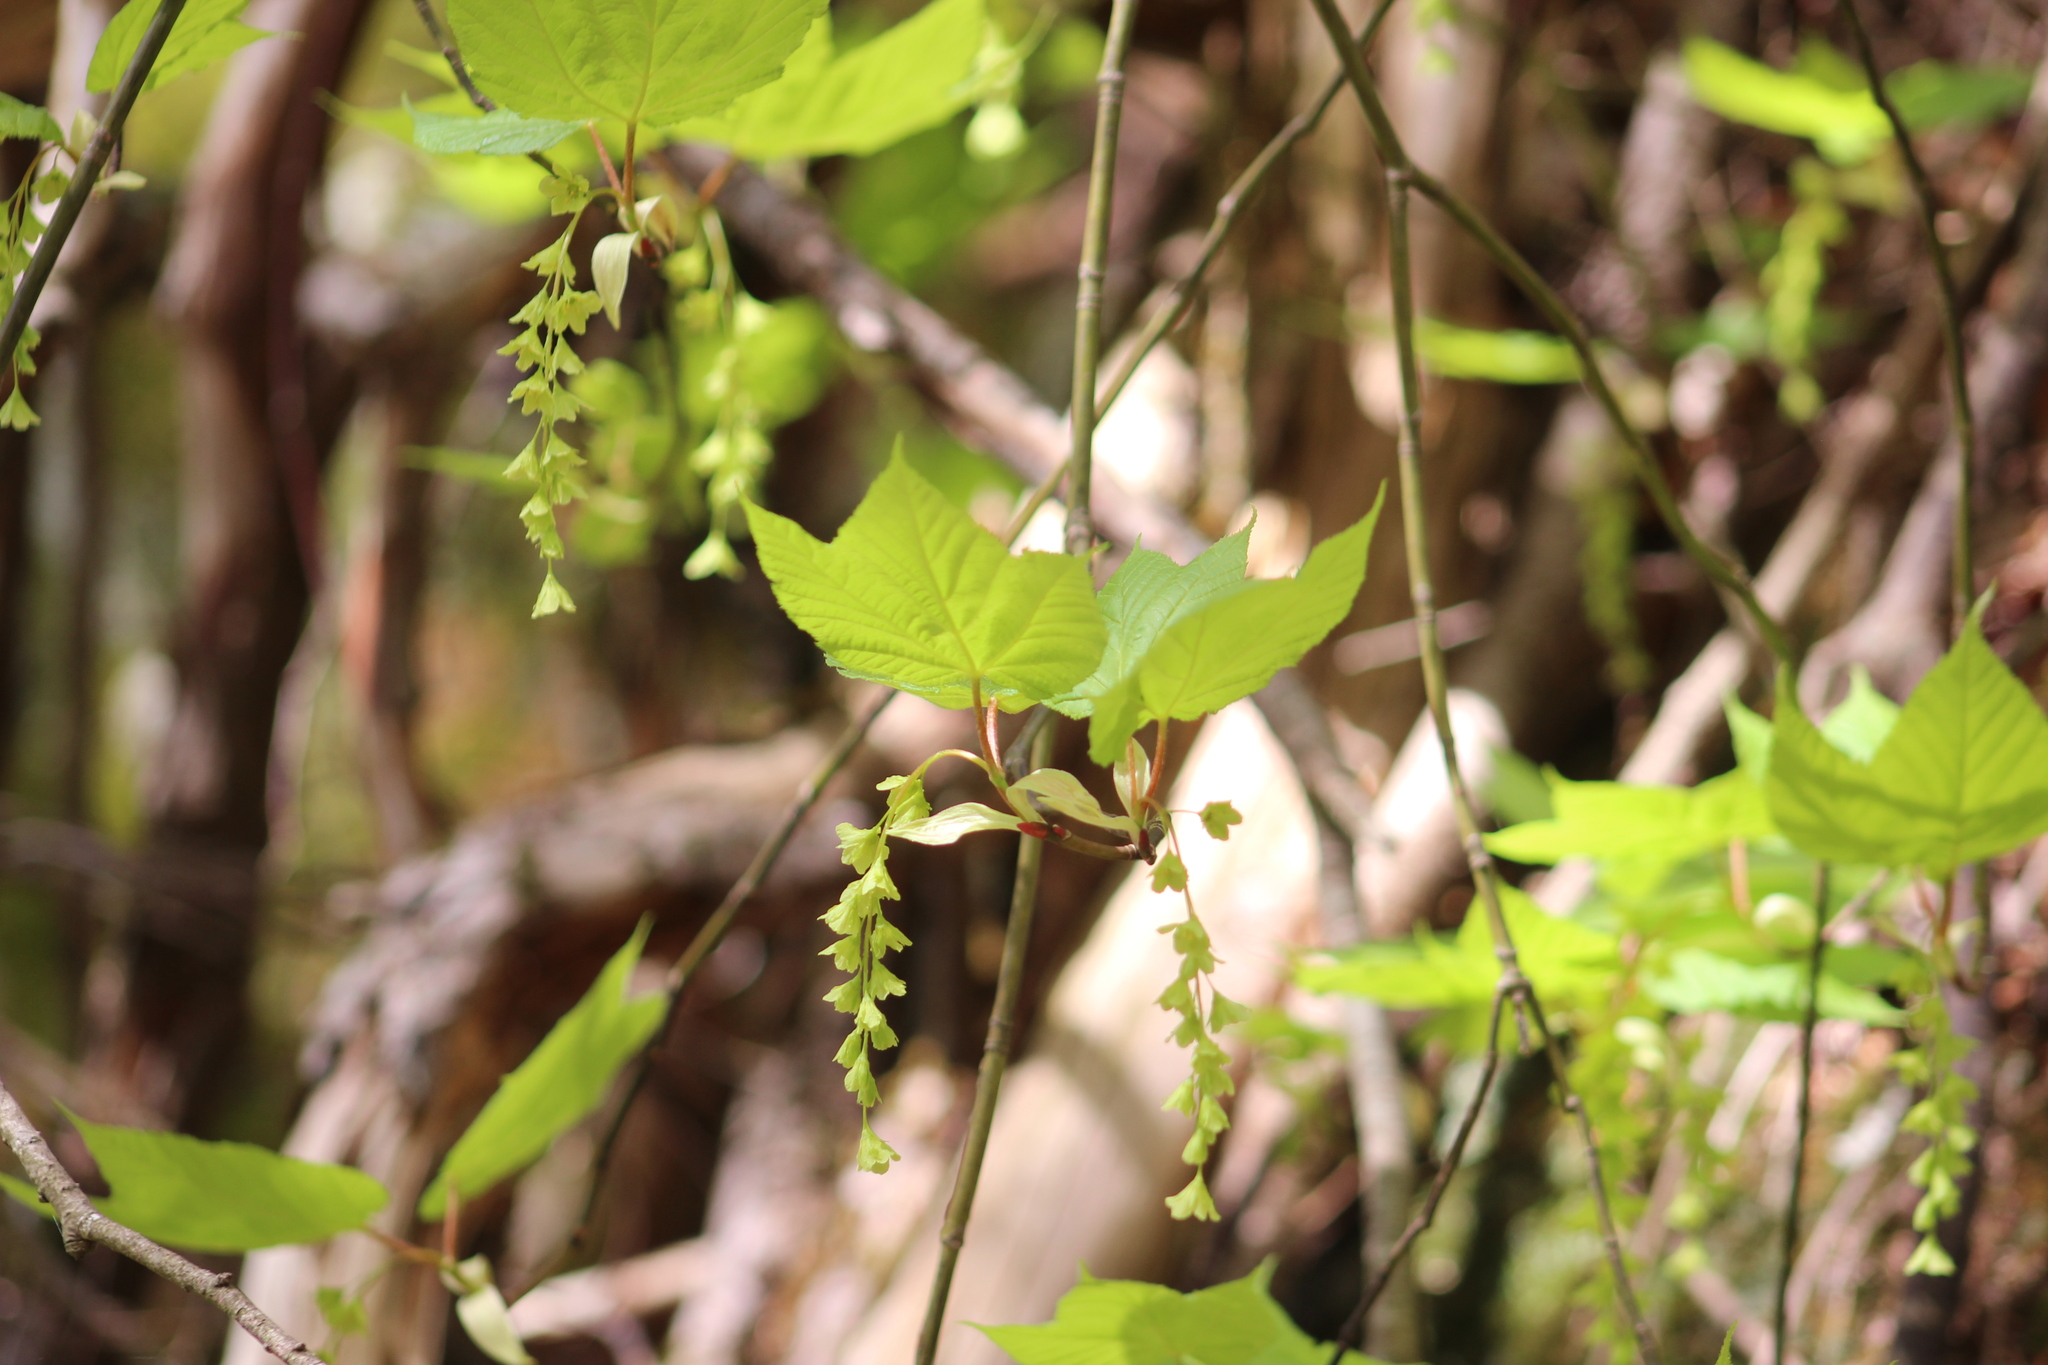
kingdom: Plantae
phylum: Tracheophyta
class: Magnoliopsida
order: Sapindales
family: Sapindaceae
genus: Acer
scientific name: Acer pensylvanicum
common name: Moosewood
